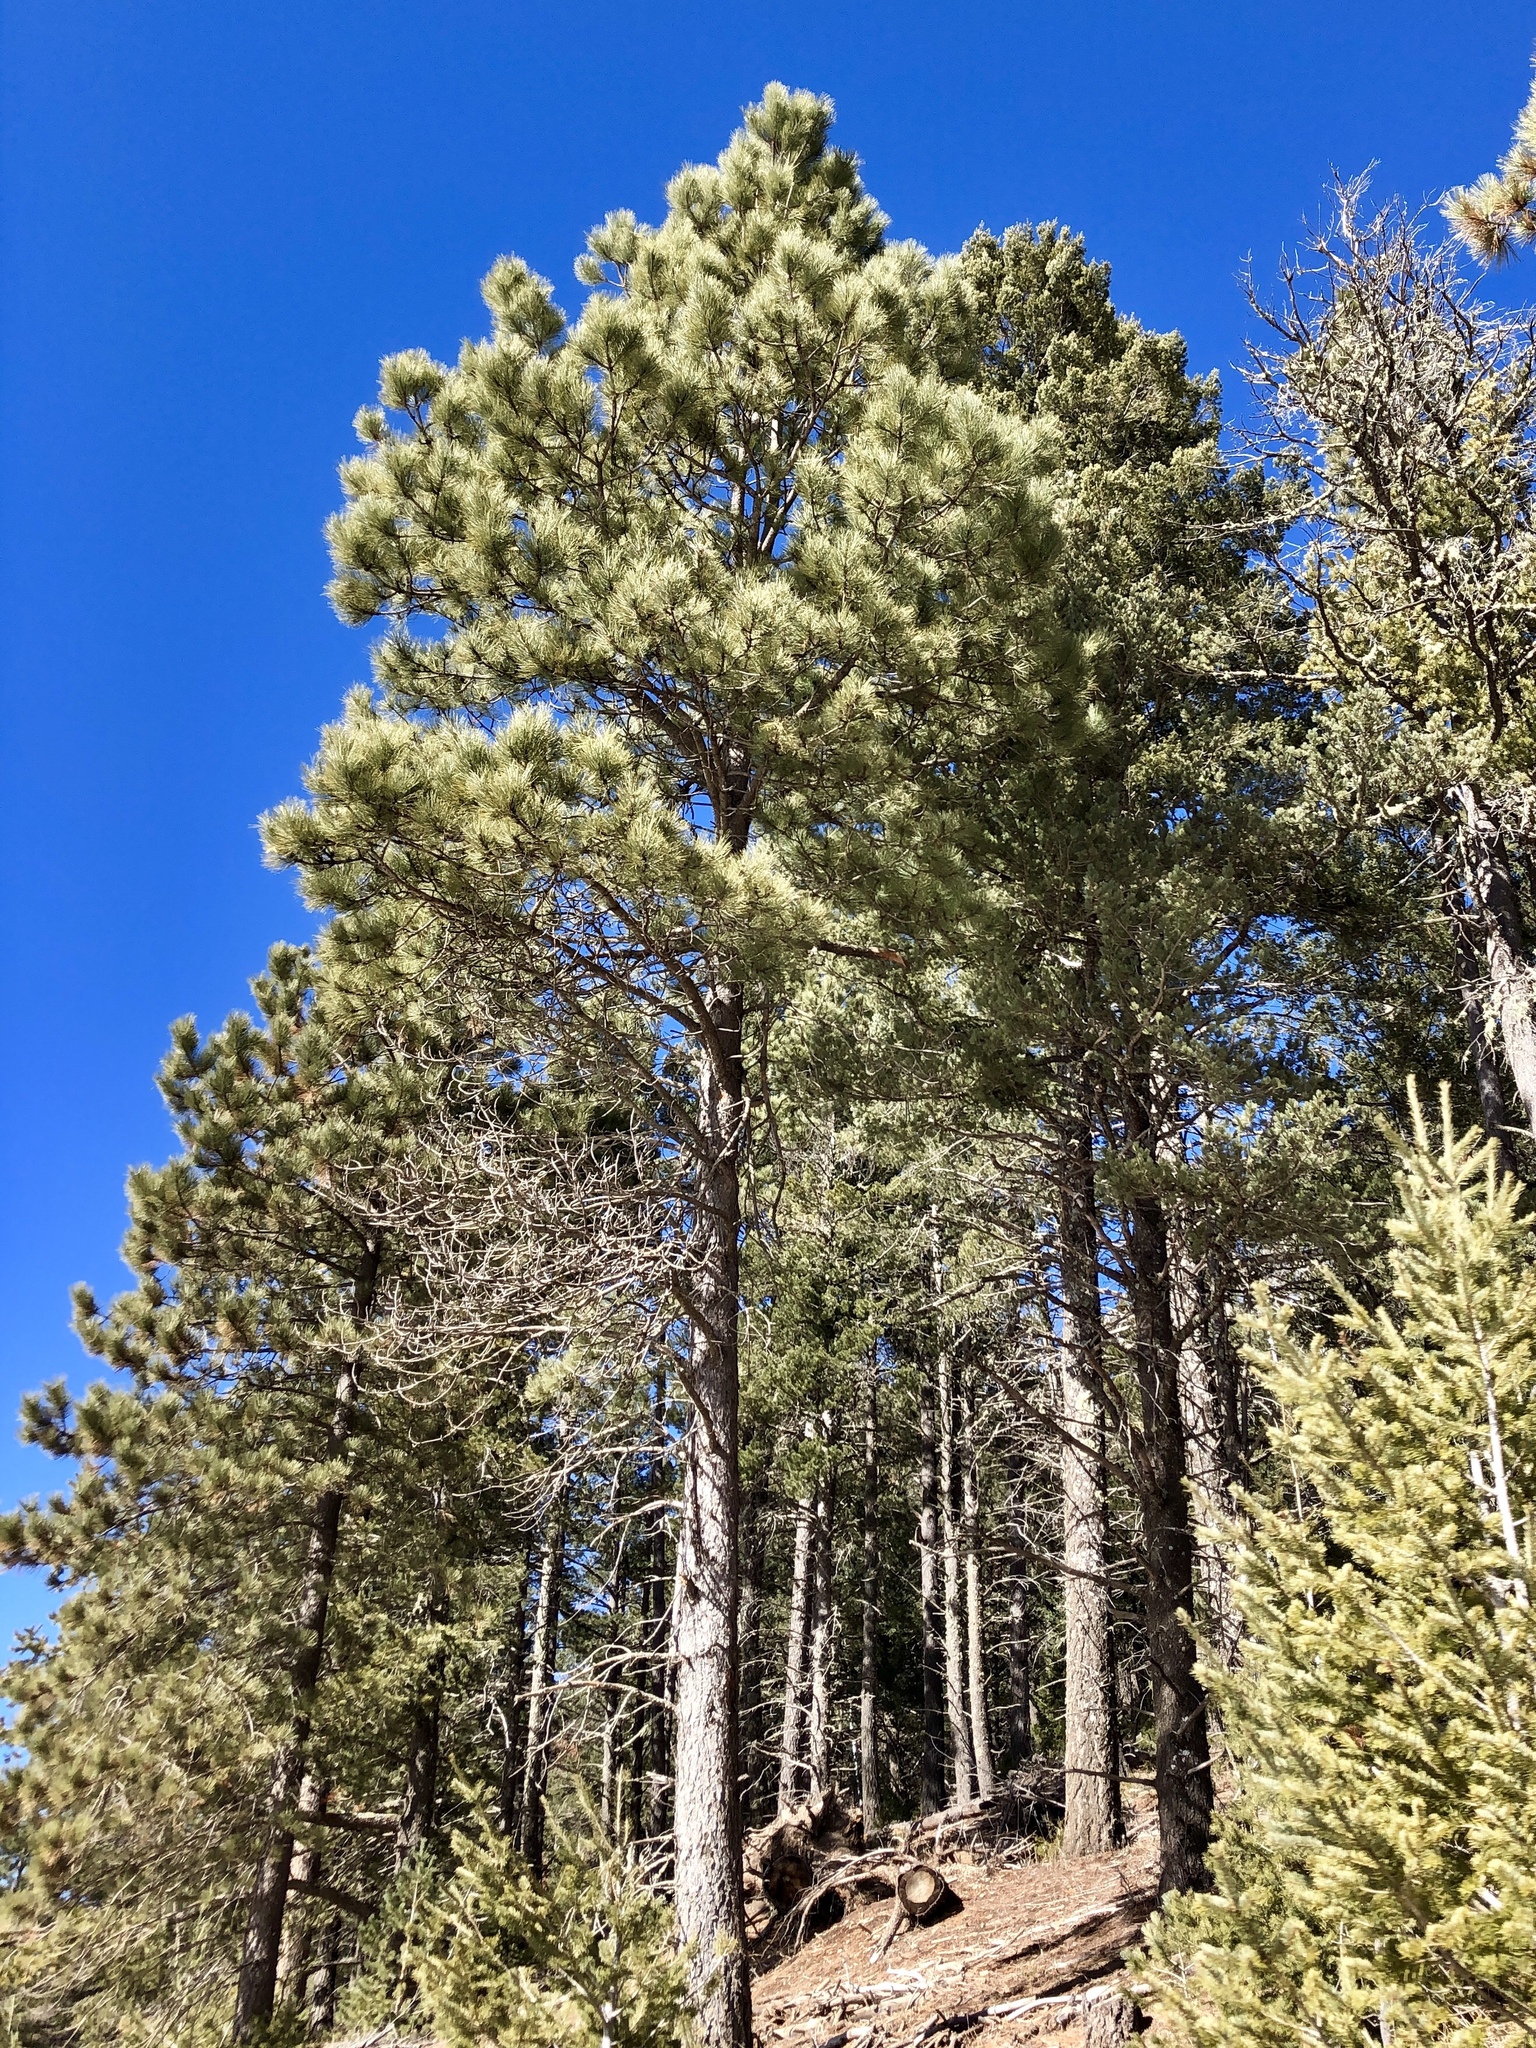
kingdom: Plantae
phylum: Tracheophyta
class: Pinopsida
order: Pinales
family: Pinaceae
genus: Pinus
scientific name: Pinus ponderosa
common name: Western yellow-pine
